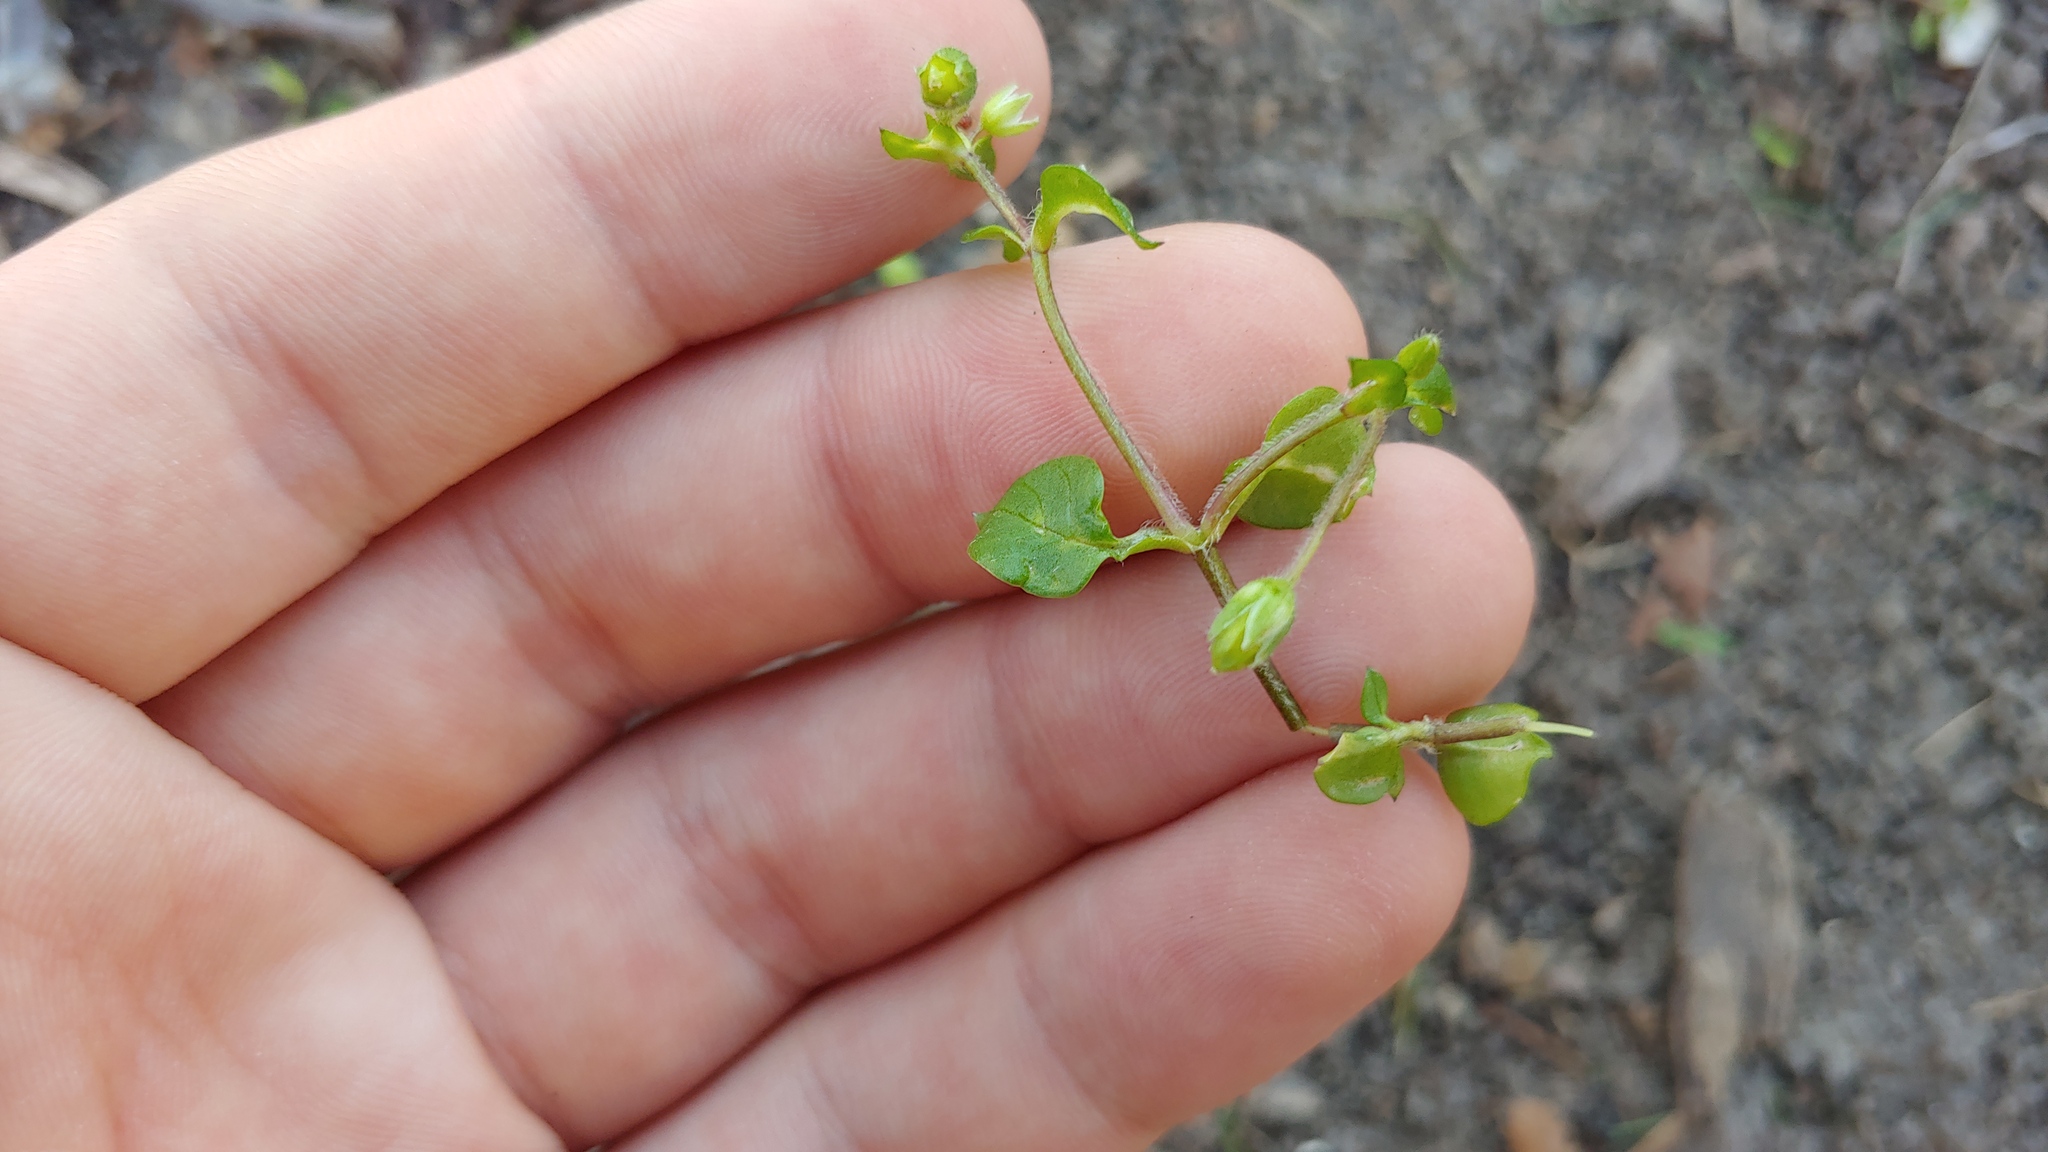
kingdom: Plantae
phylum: Tracheophyta
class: Magnoliopsida
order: Caryophyllales
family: Caryophyllaceae
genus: Stellaria
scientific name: Stellaria media
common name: Common chickweed
